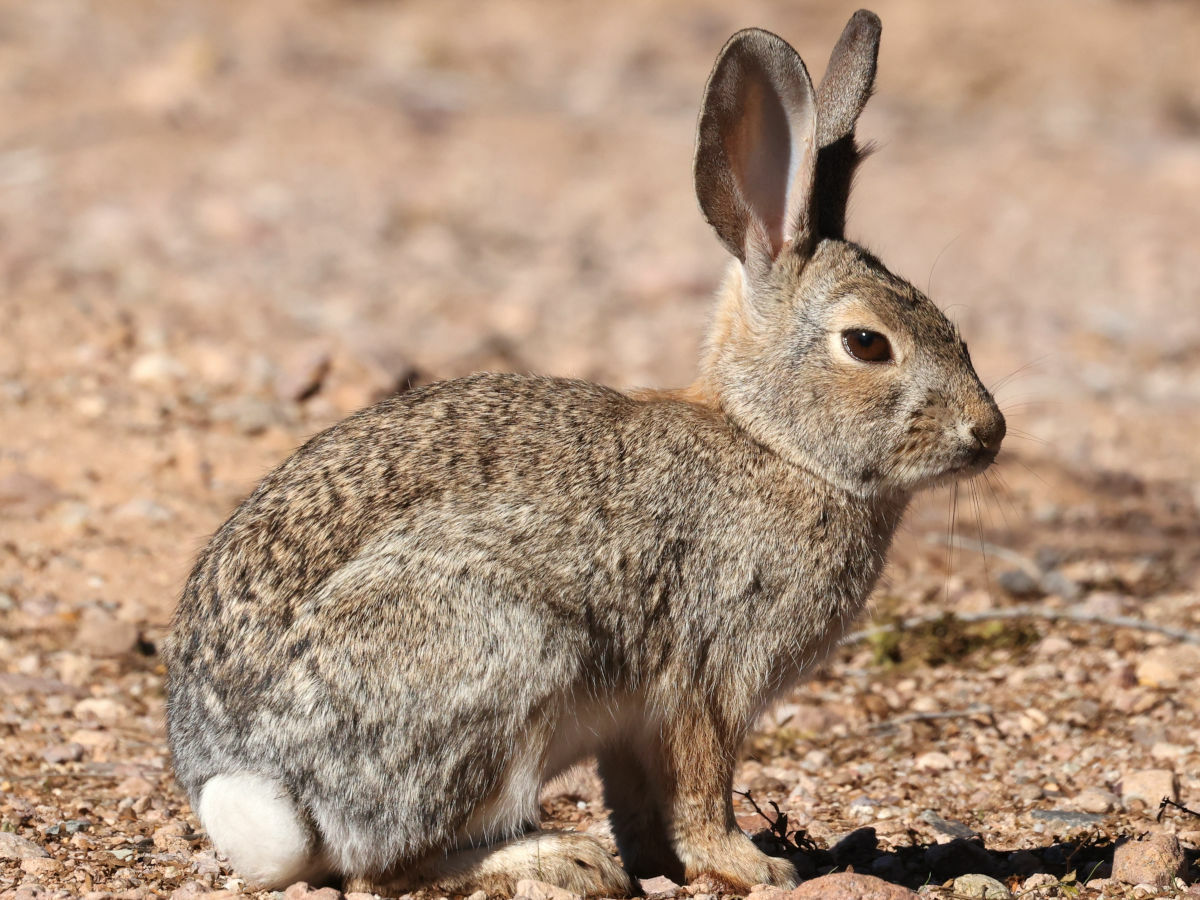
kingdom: Animalia
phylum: Chordata
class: Mammalia
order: Lagomorpha
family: Leporidae
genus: Sylvilagus
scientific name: Sylvilagus audubonii
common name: Desert cottontail
